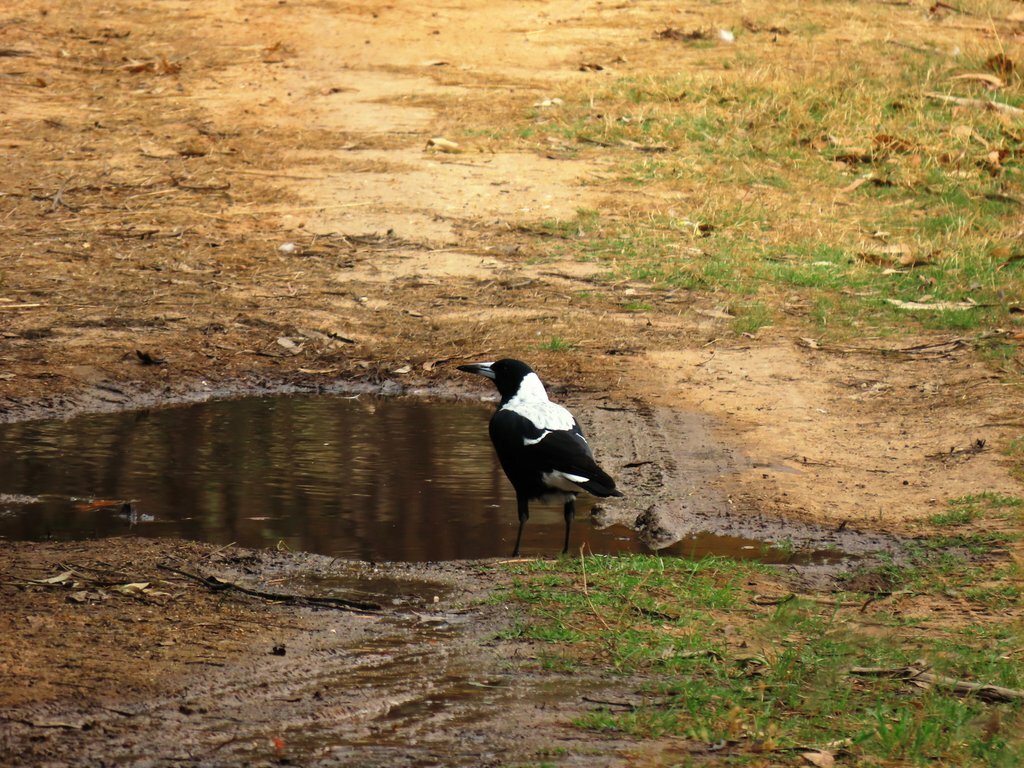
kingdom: Animalia
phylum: Chordata
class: Aves
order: Passeriformes
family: Cracticidae
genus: Gymnorhina
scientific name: Gymnorhina tibicen
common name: Australian magpie
